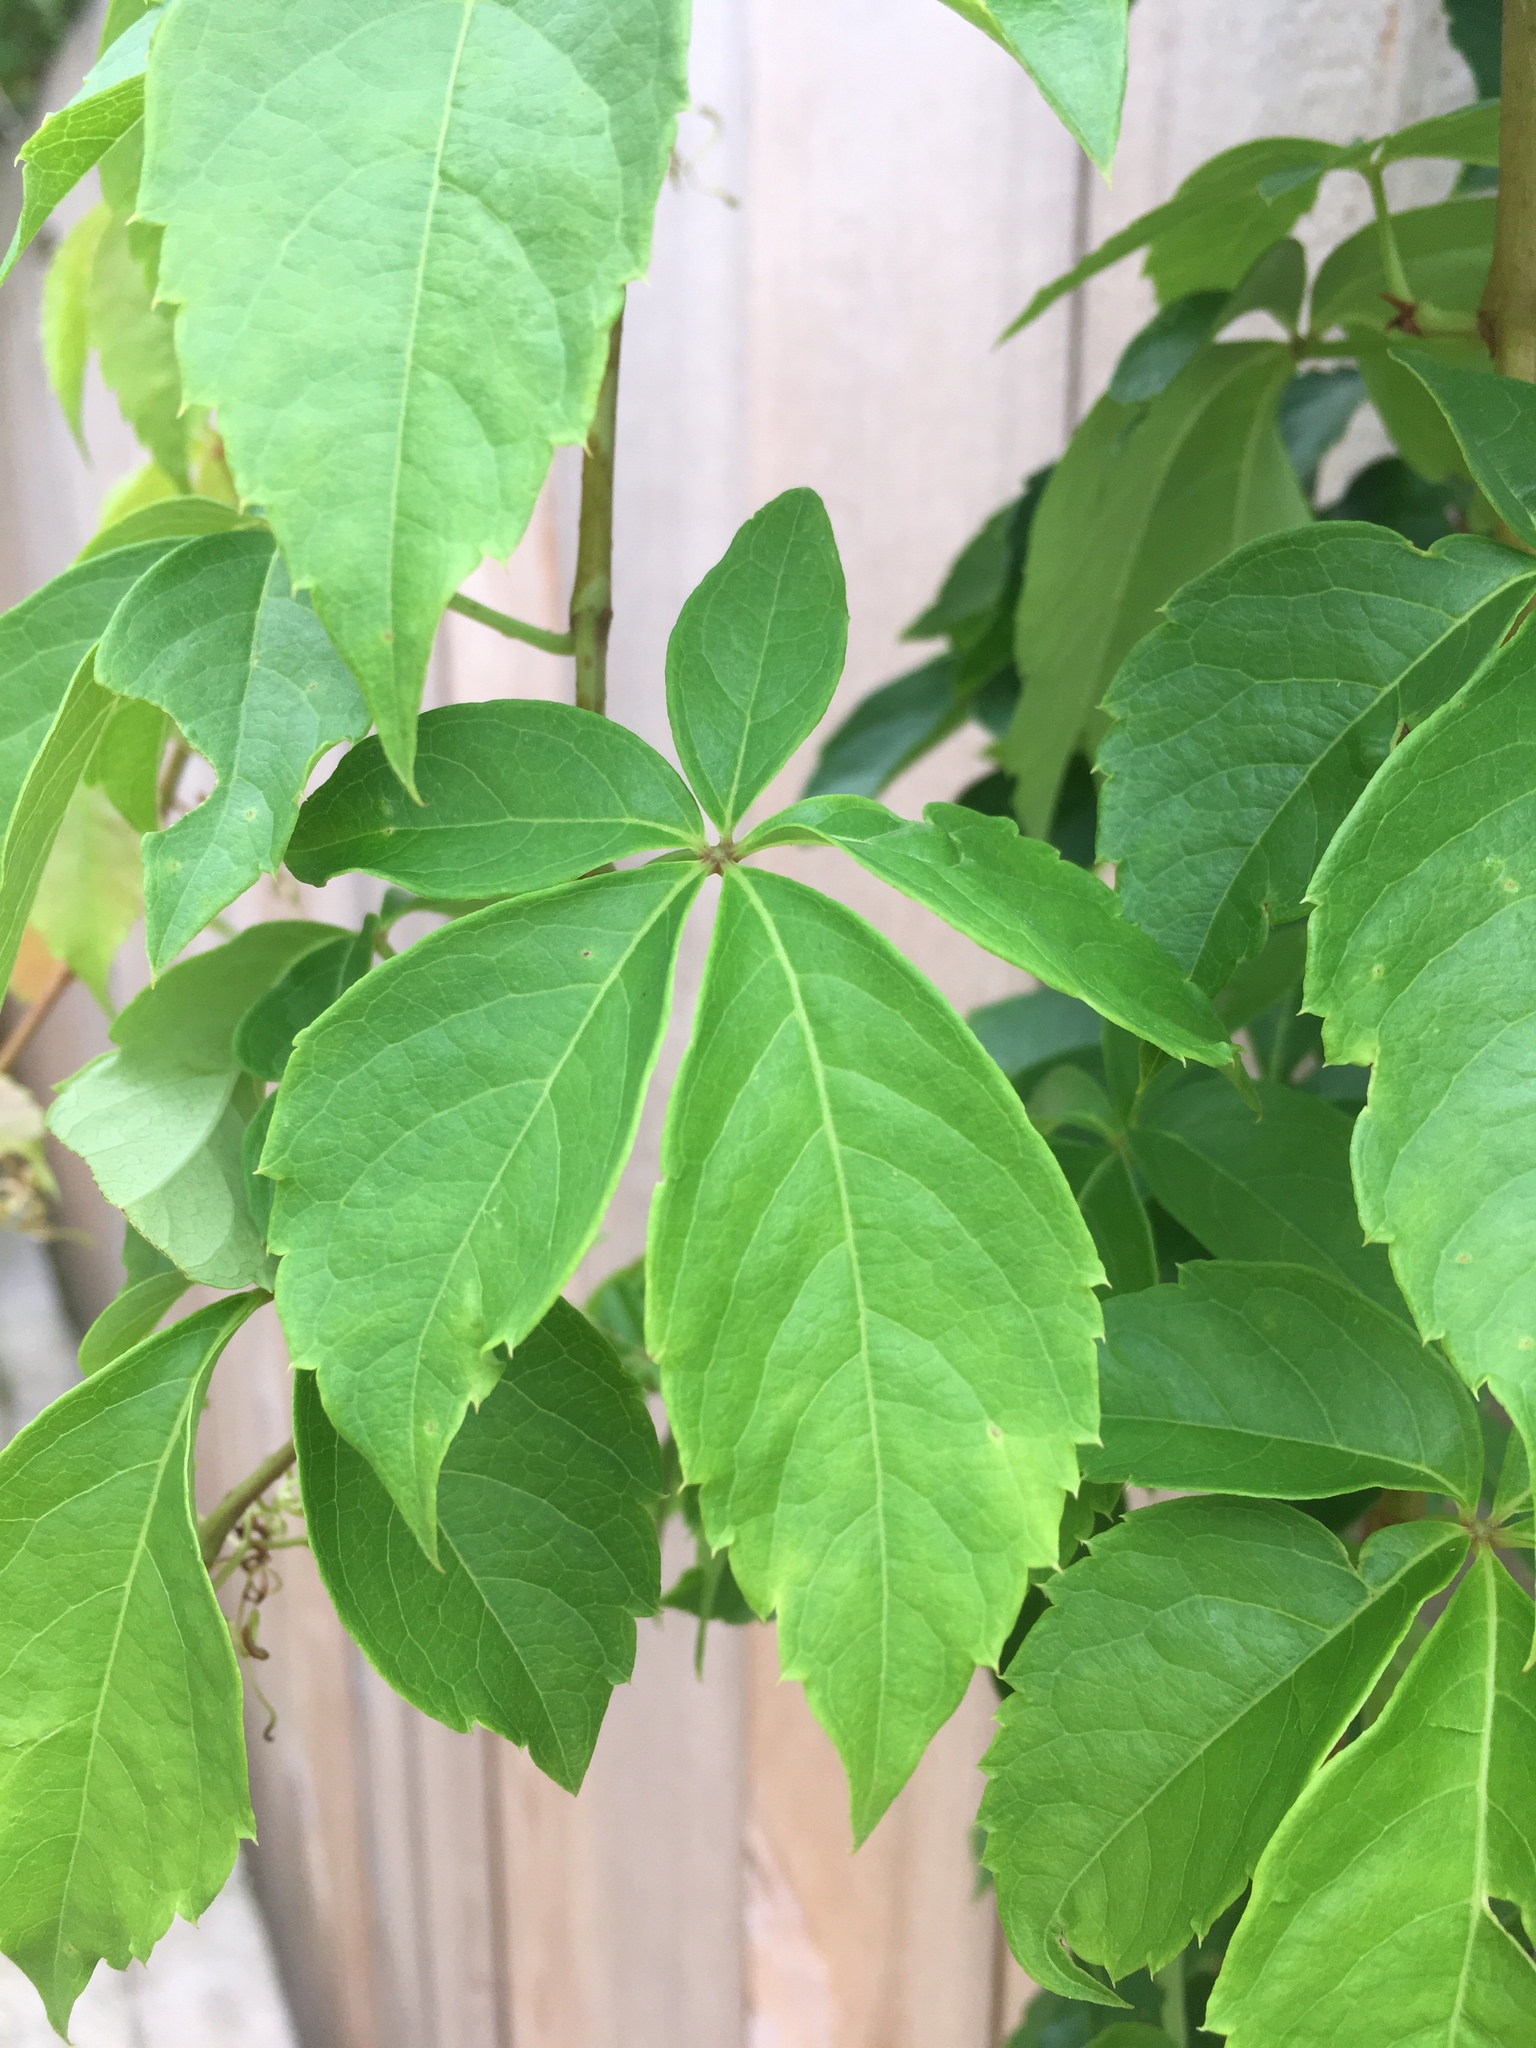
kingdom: Plantae
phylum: Tracheophyta
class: Magnoliopsida
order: Vitales
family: Vitaceae
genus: Parthenocissus
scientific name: Parthenocissus quinquefolia
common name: Virginia-creeper
